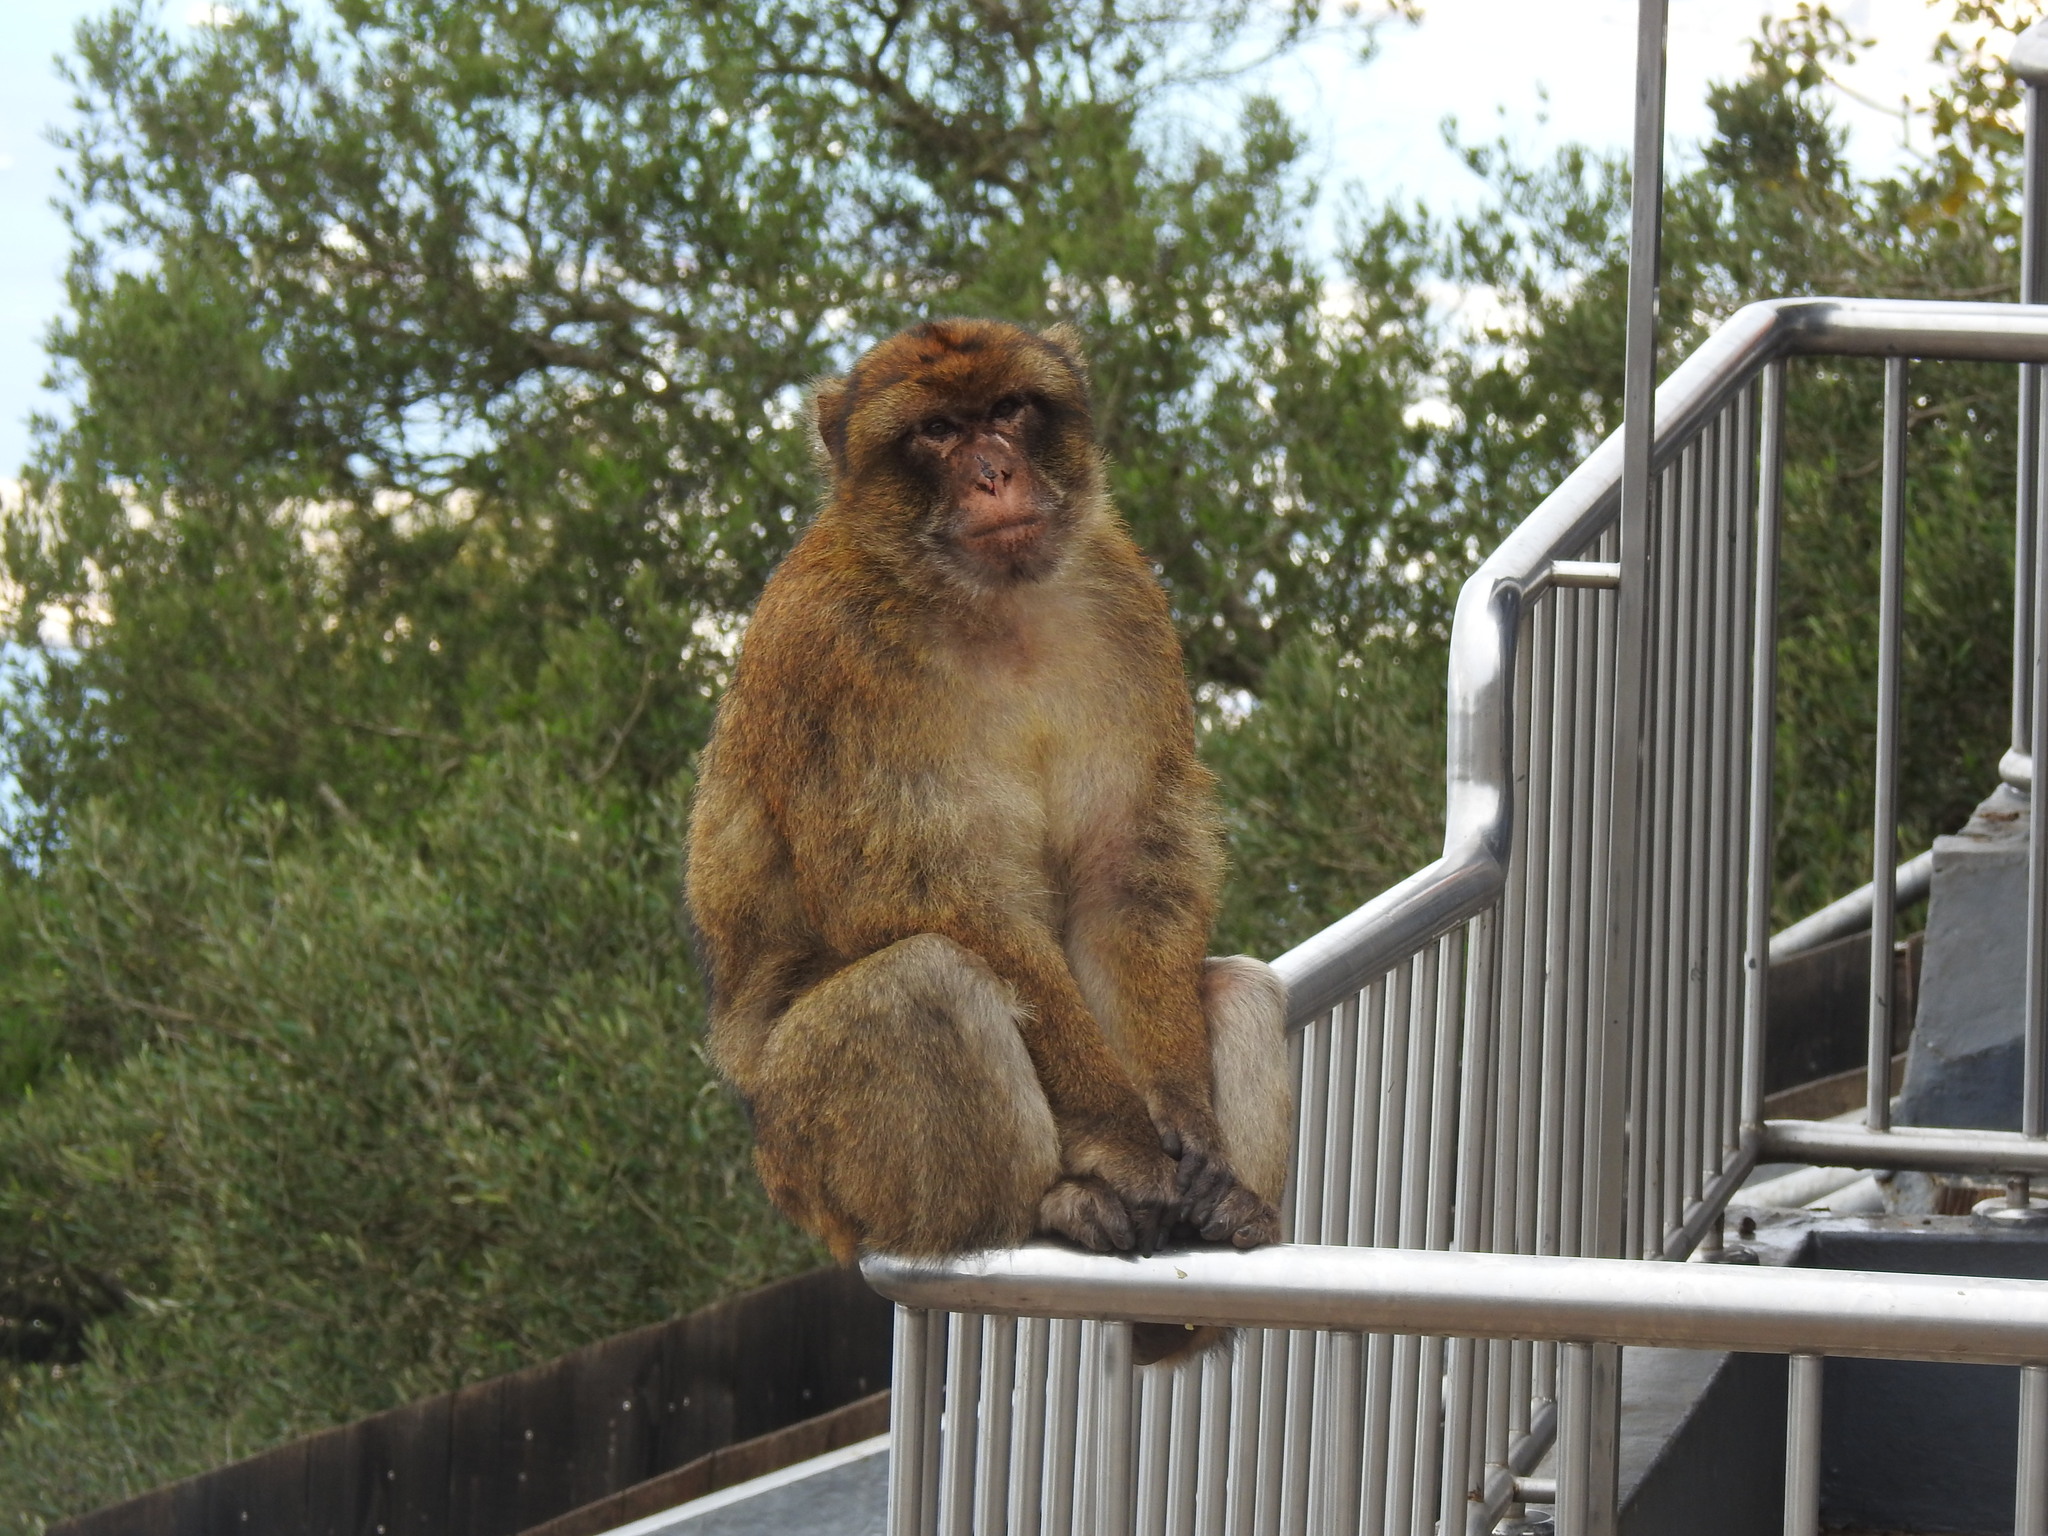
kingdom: Animalia
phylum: Chordata
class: Mammalia
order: Primates
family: Cercopithecidae
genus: Macaca
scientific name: Macaca sylvanus
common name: Barbary macaque
